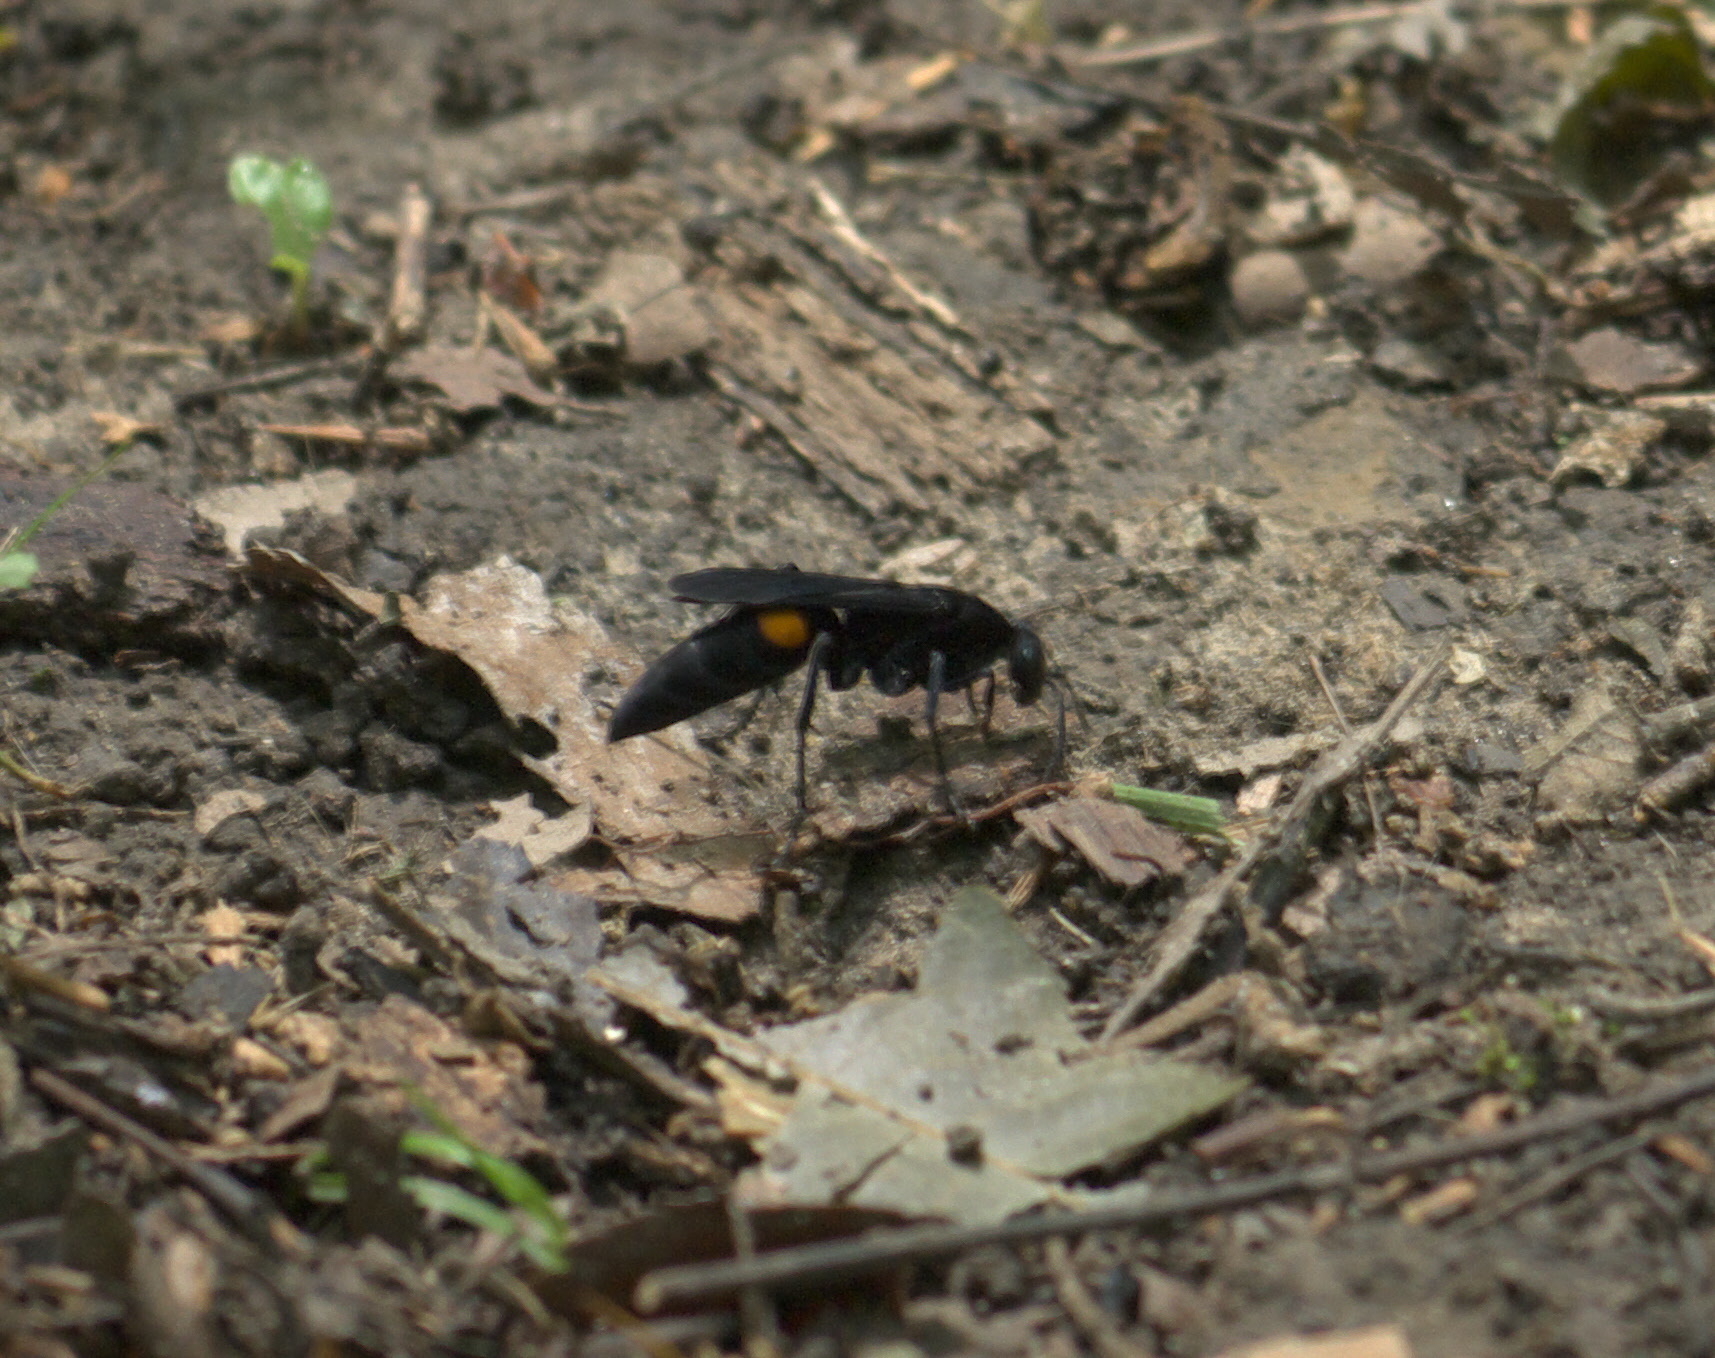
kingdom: Animalia
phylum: Arthropoda
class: Insecta
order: Hymenoptera
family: Pompilidae
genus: Psorthaspis
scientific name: Psorthaspis brimleyi
